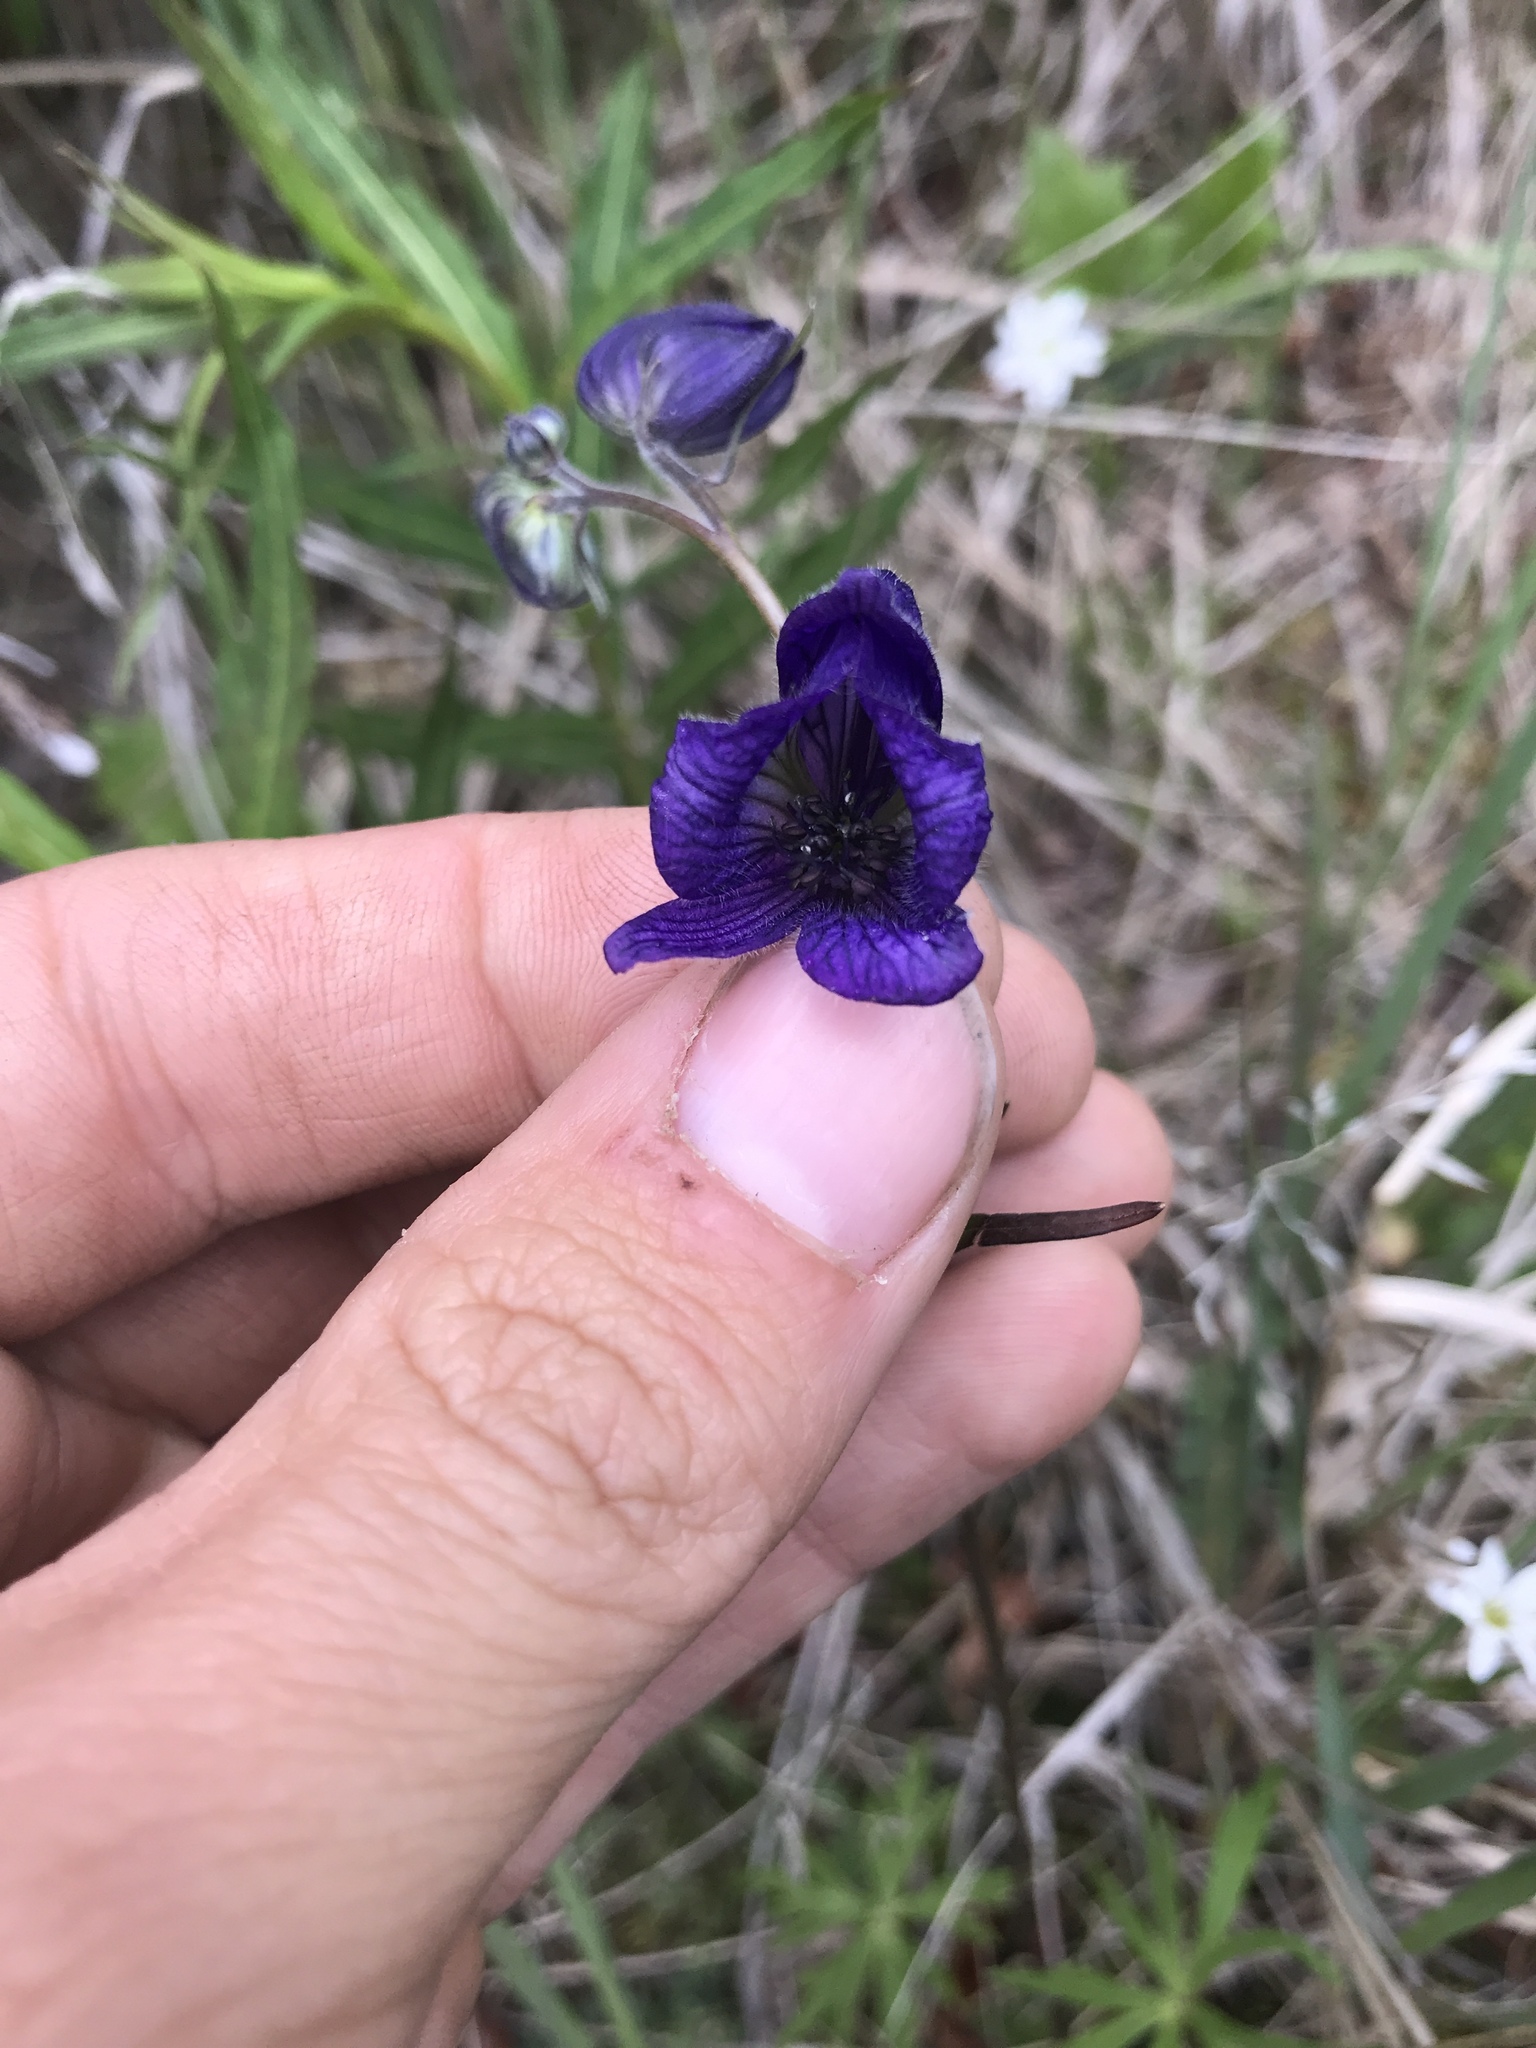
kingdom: Plantae
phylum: Tracheophyta
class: Magnoliopsida
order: Ranunculales
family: Ranunculaceae
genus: Aconitum
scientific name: Aconitum delphiniifolium
